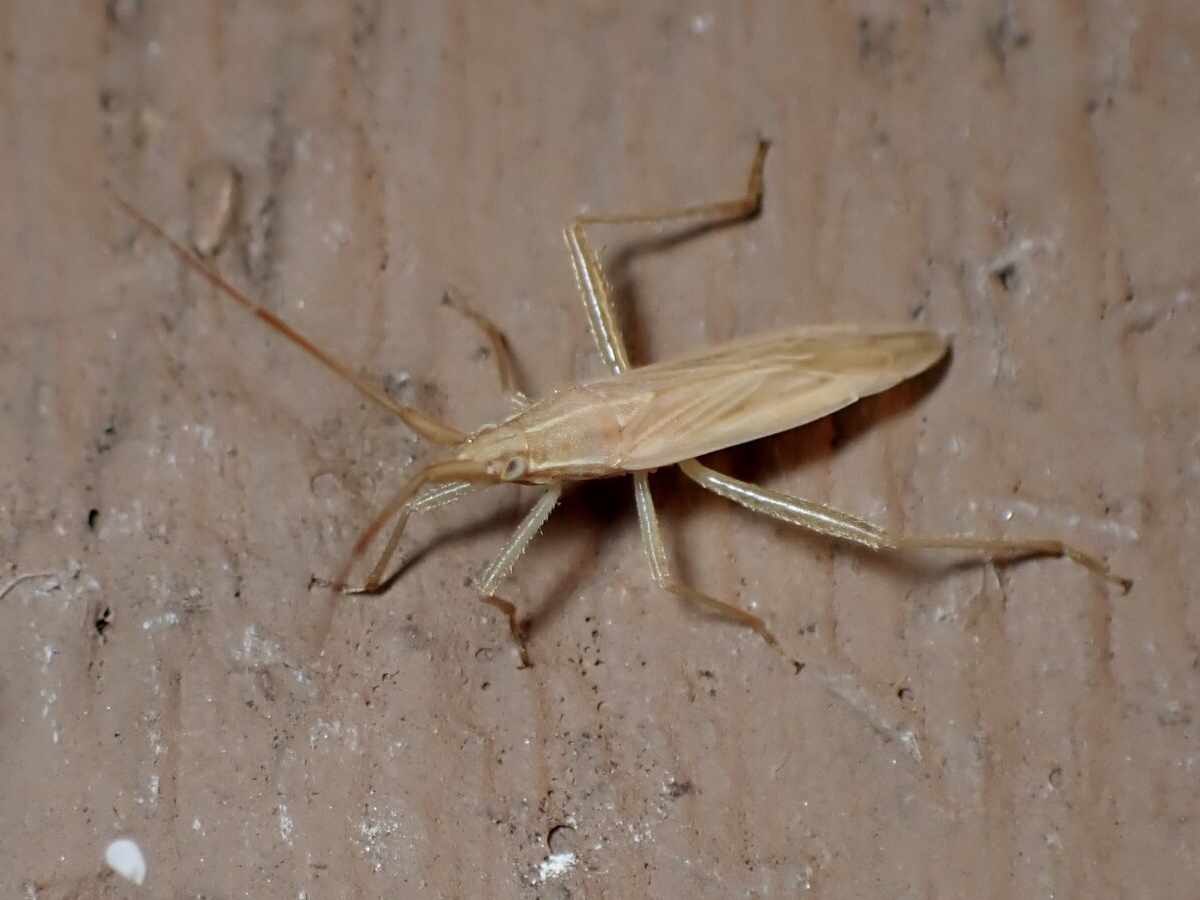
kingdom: Animalia
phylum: Arthropoda
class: Insecta
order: Hemiptera
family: Miridae
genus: Stenodema
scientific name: Stenodema trispinosa
